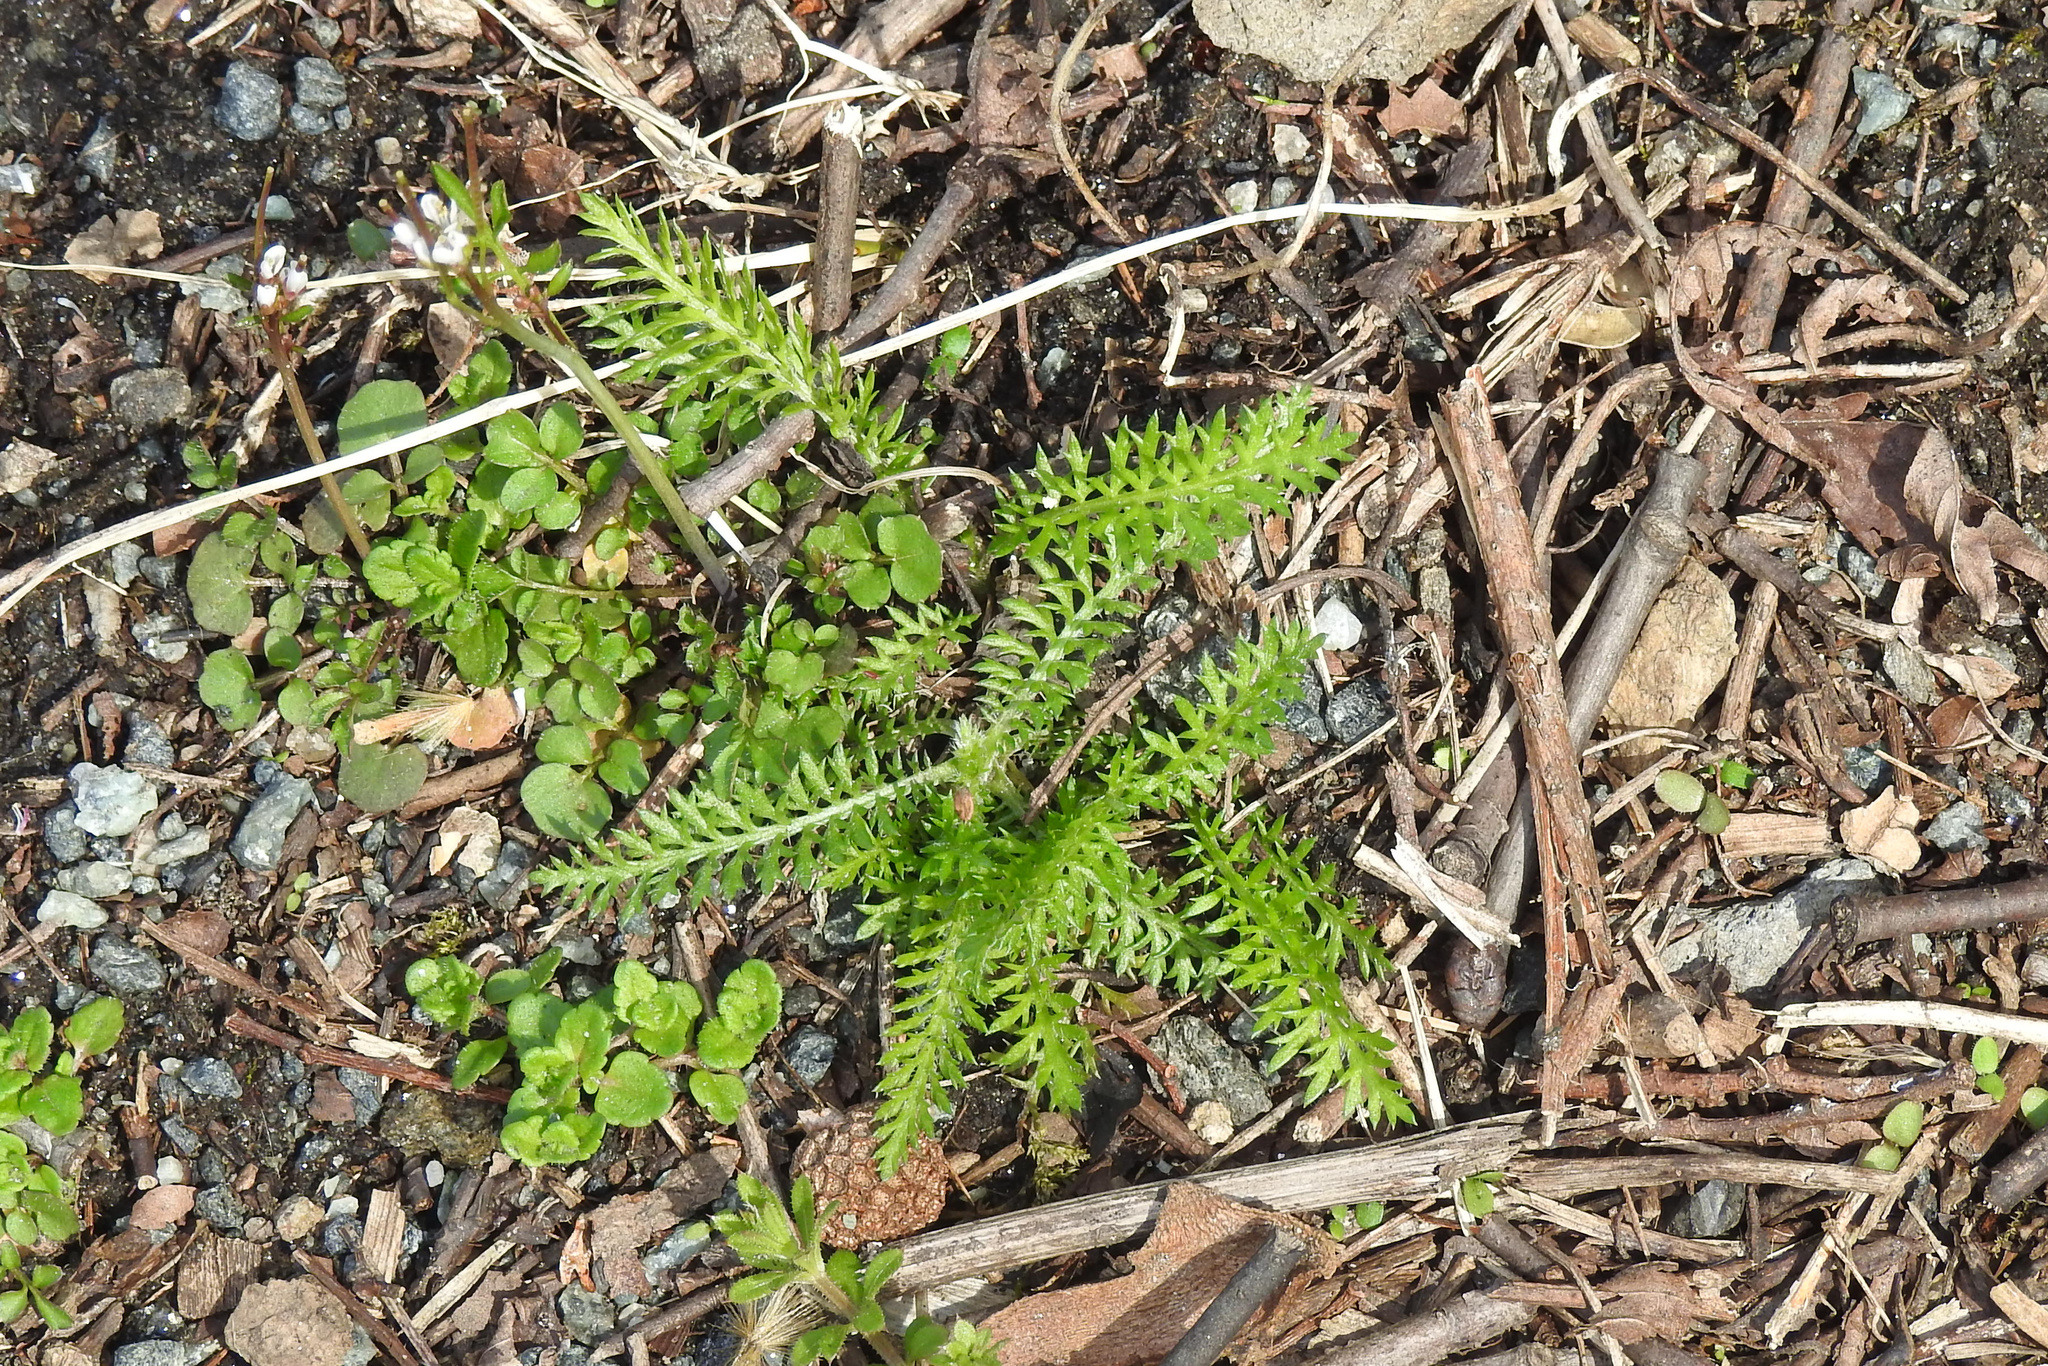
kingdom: Plantae
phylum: Tracheophyta
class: Magnoliopsida
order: Asterales
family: Asteraceae
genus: Achillea
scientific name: Achillea millefolium
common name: Yarrow
